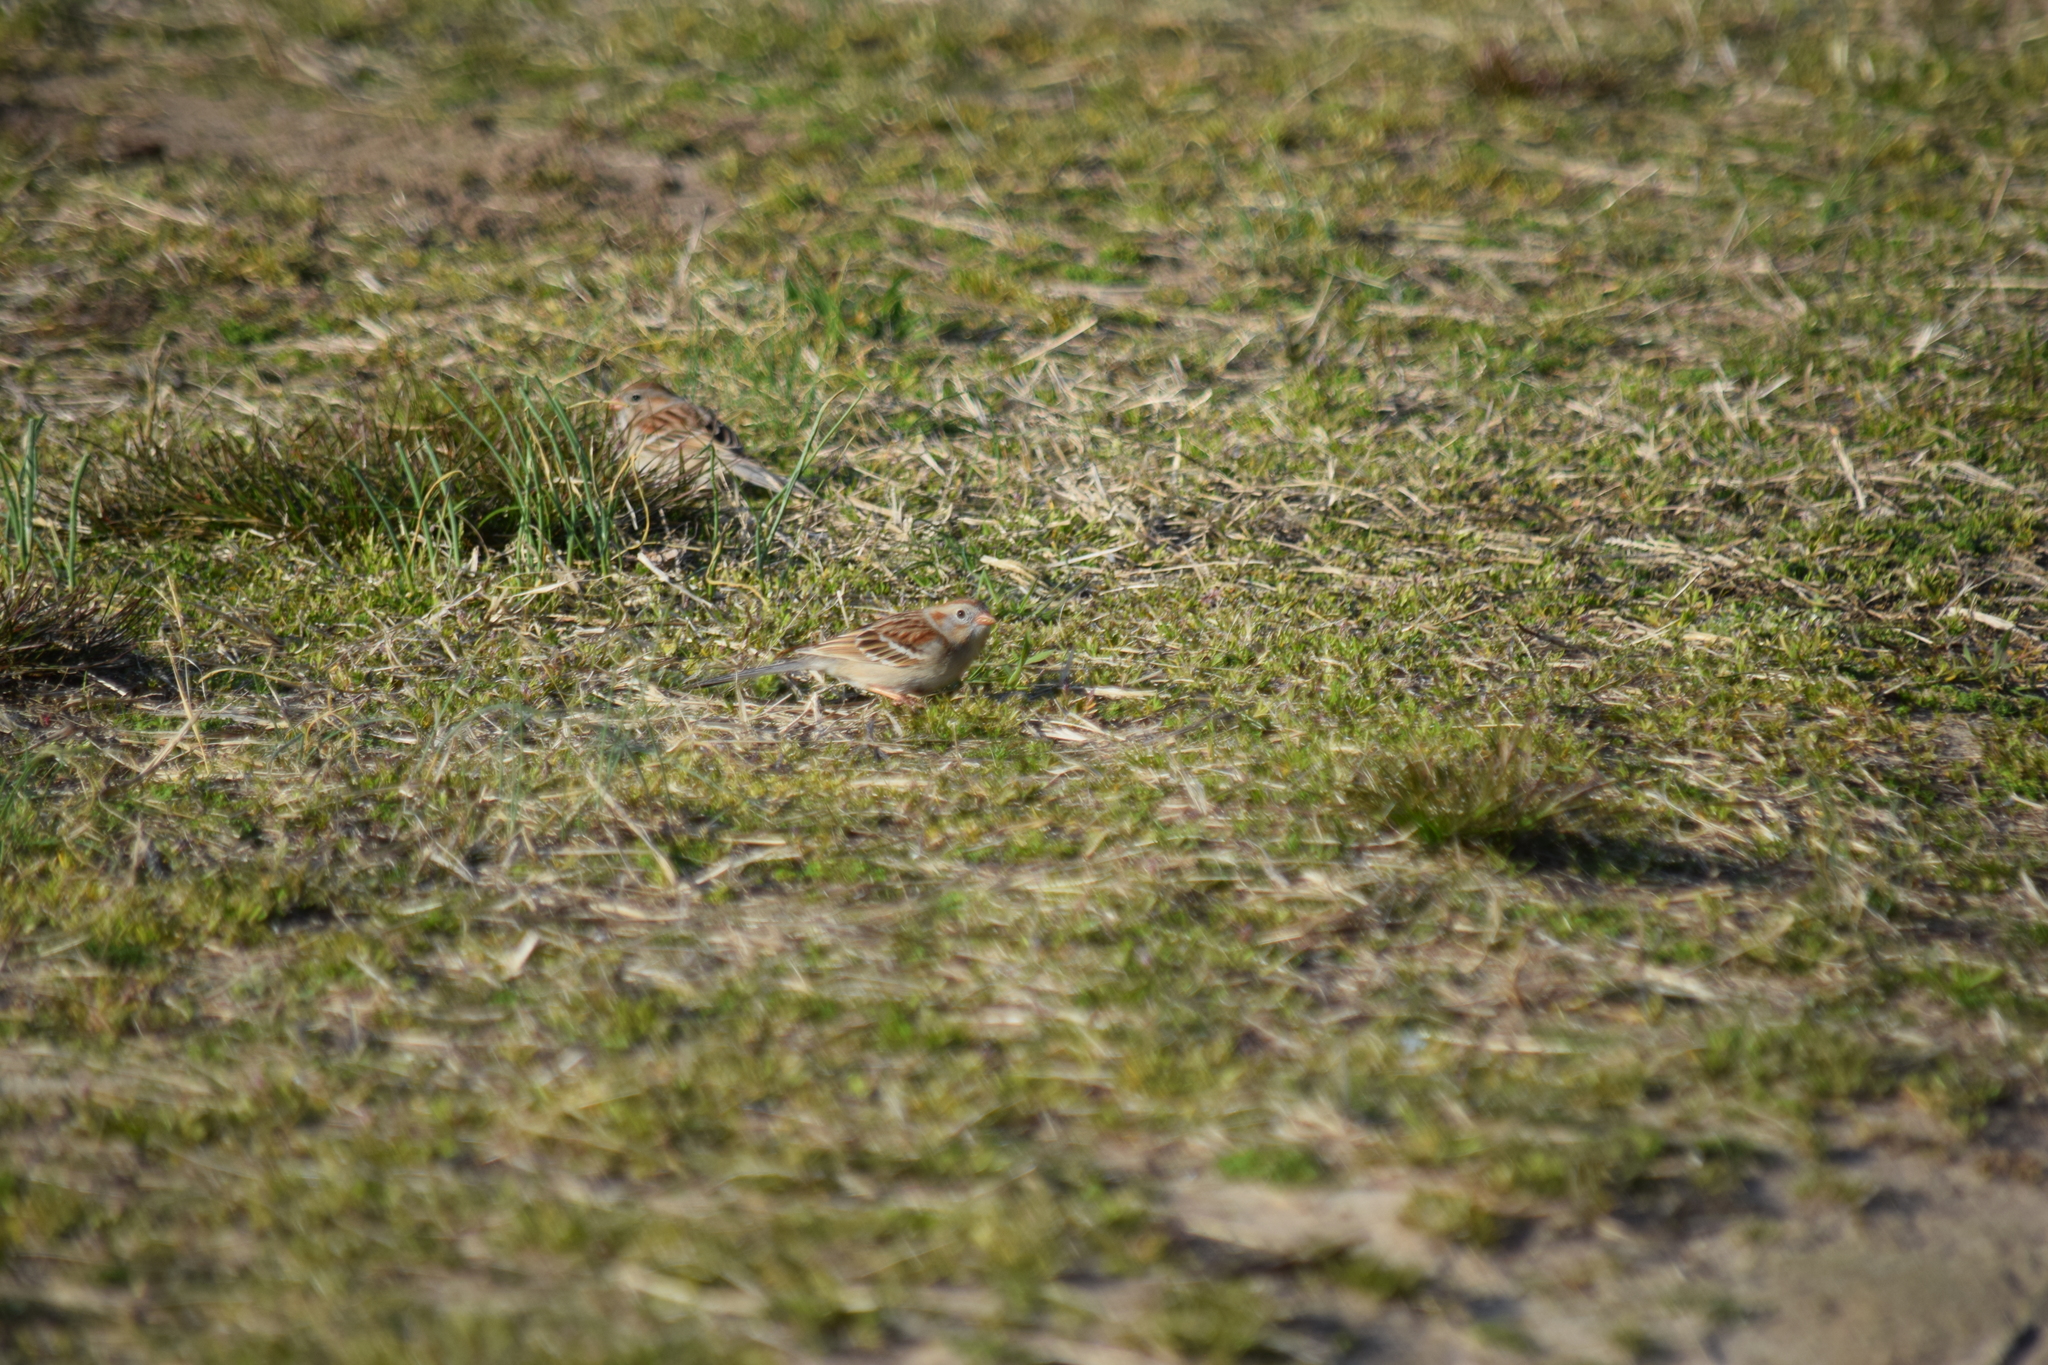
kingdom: Animalia
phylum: Chordata
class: Aves
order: Passeriformes
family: Passerellidae
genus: Spizella
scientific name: Spizella pusilla
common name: Field sparrow
